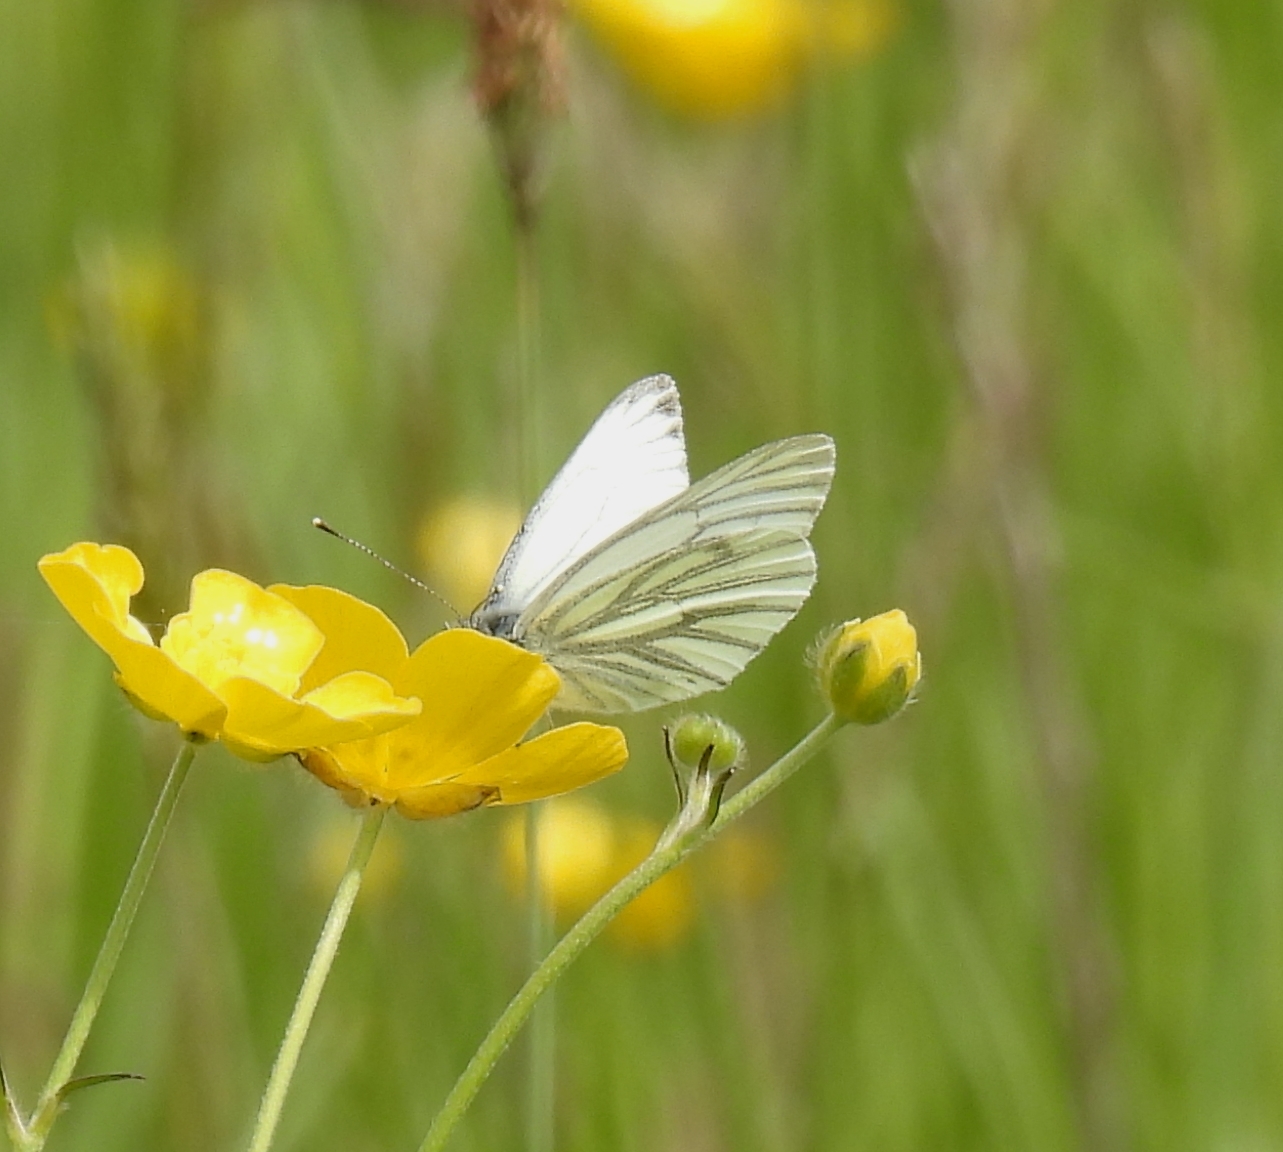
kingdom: Animalia
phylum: Arthropoda
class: Insecta
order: Lepidoptera
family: Pieridae
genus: Pieris
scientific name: Pieris napi
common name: Green-veined white
